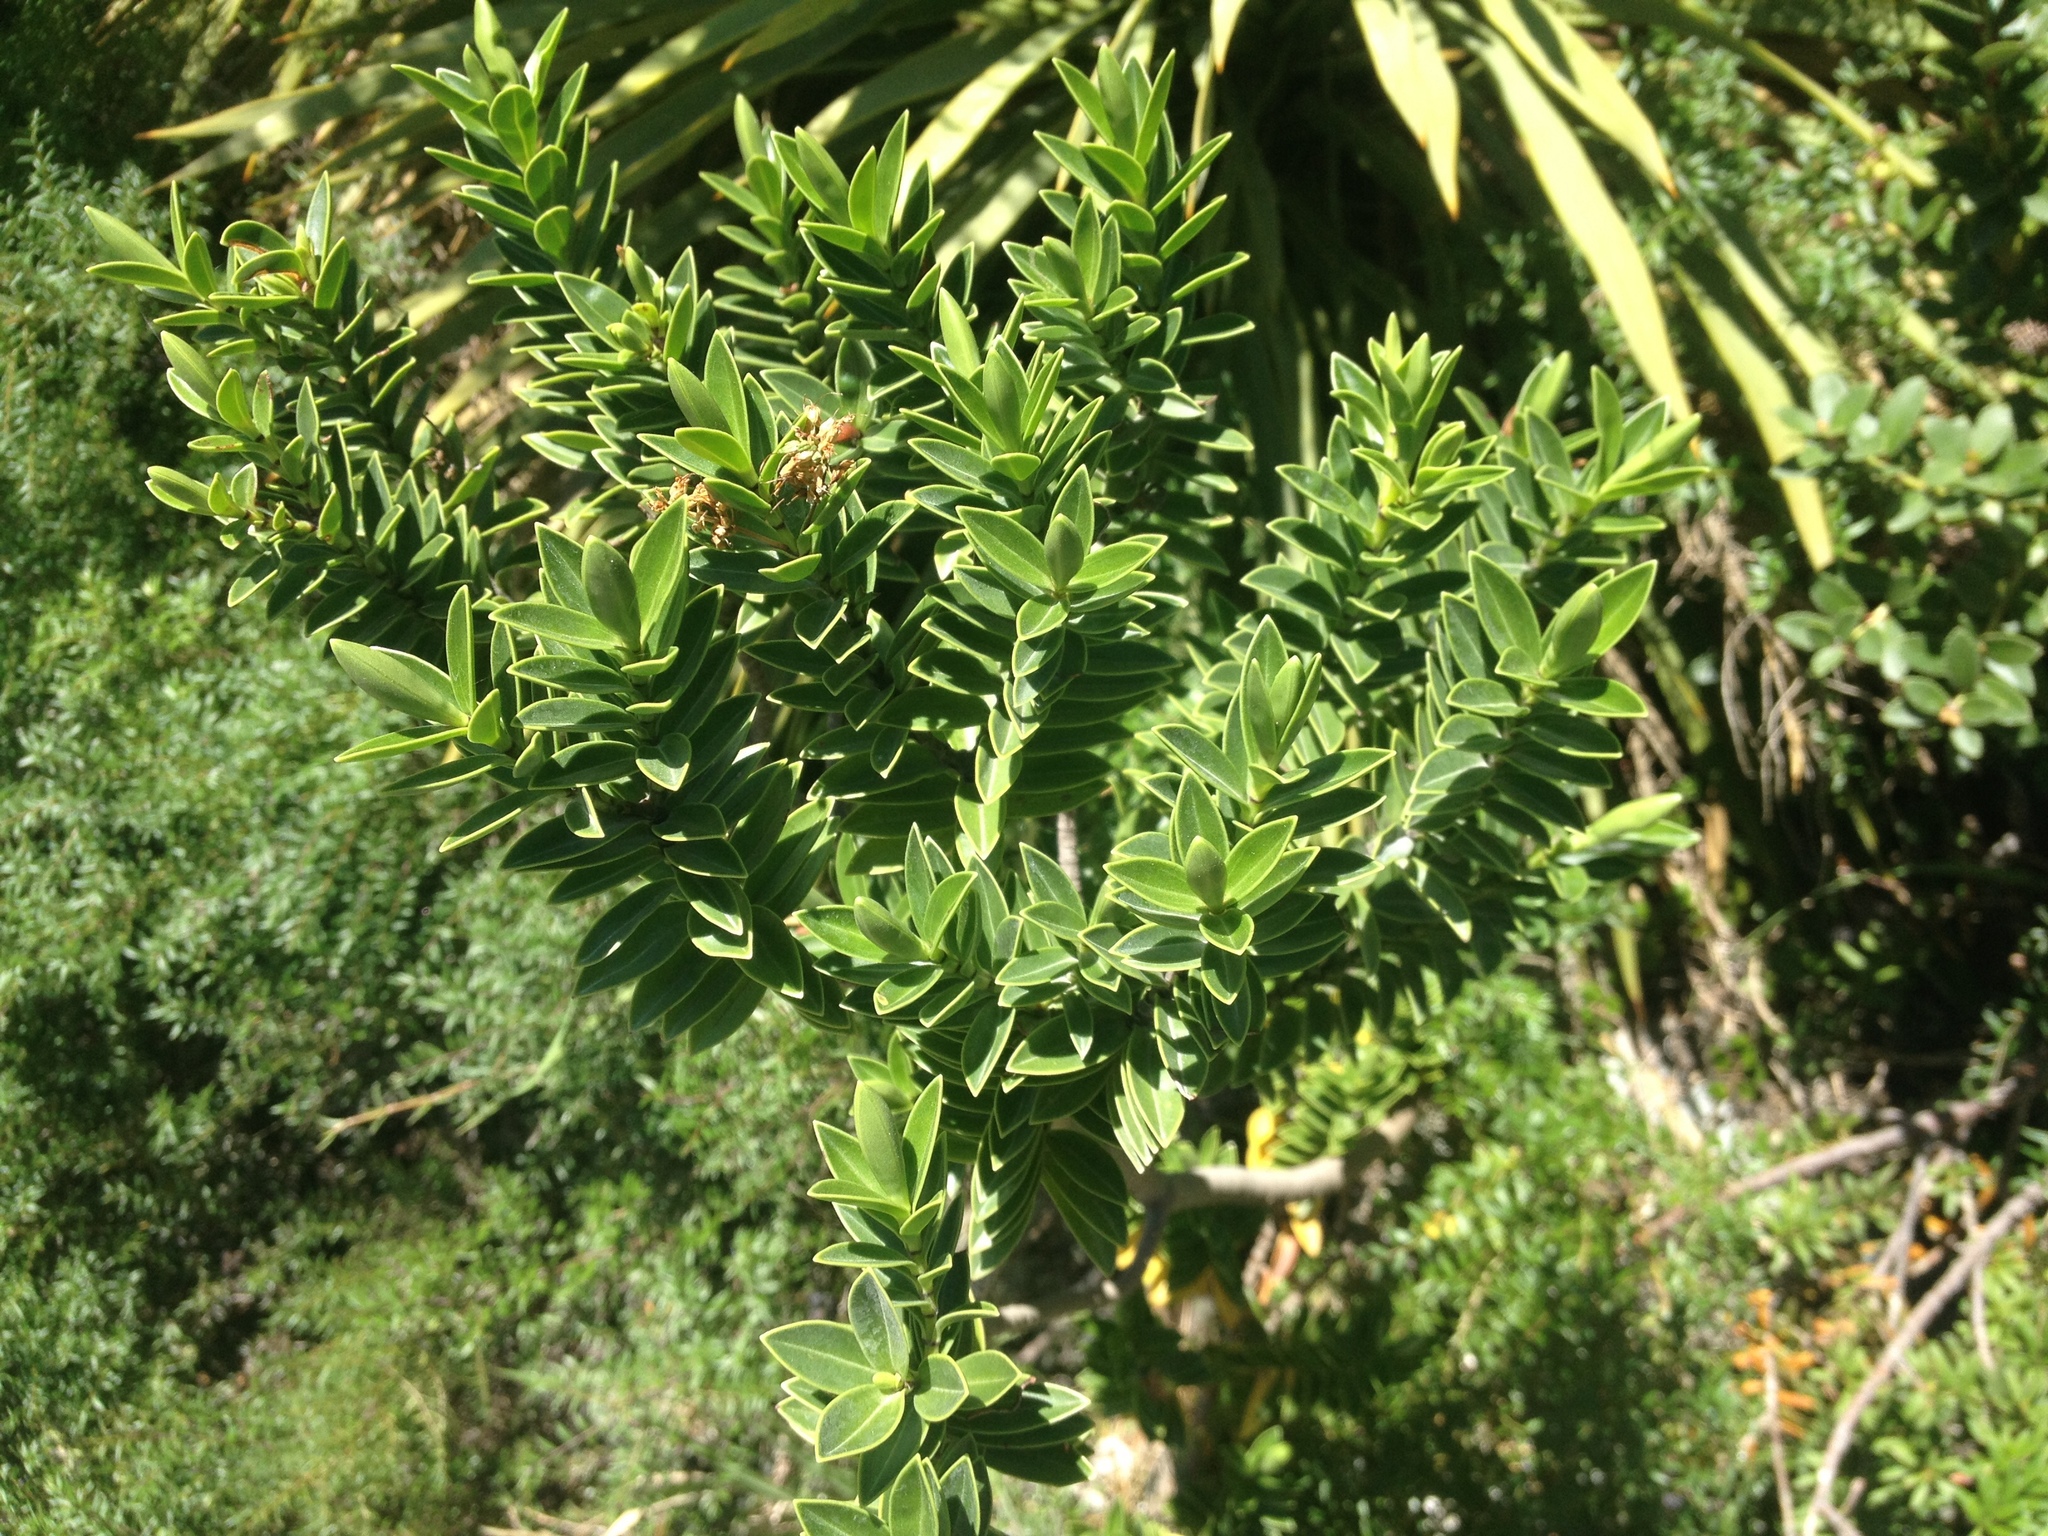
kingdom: Plantae
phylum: Tracheophyta
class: Magnoliopsida
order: Lamiales
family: Plantaginaceae
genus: Veronica
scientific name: Veronica subalpina
